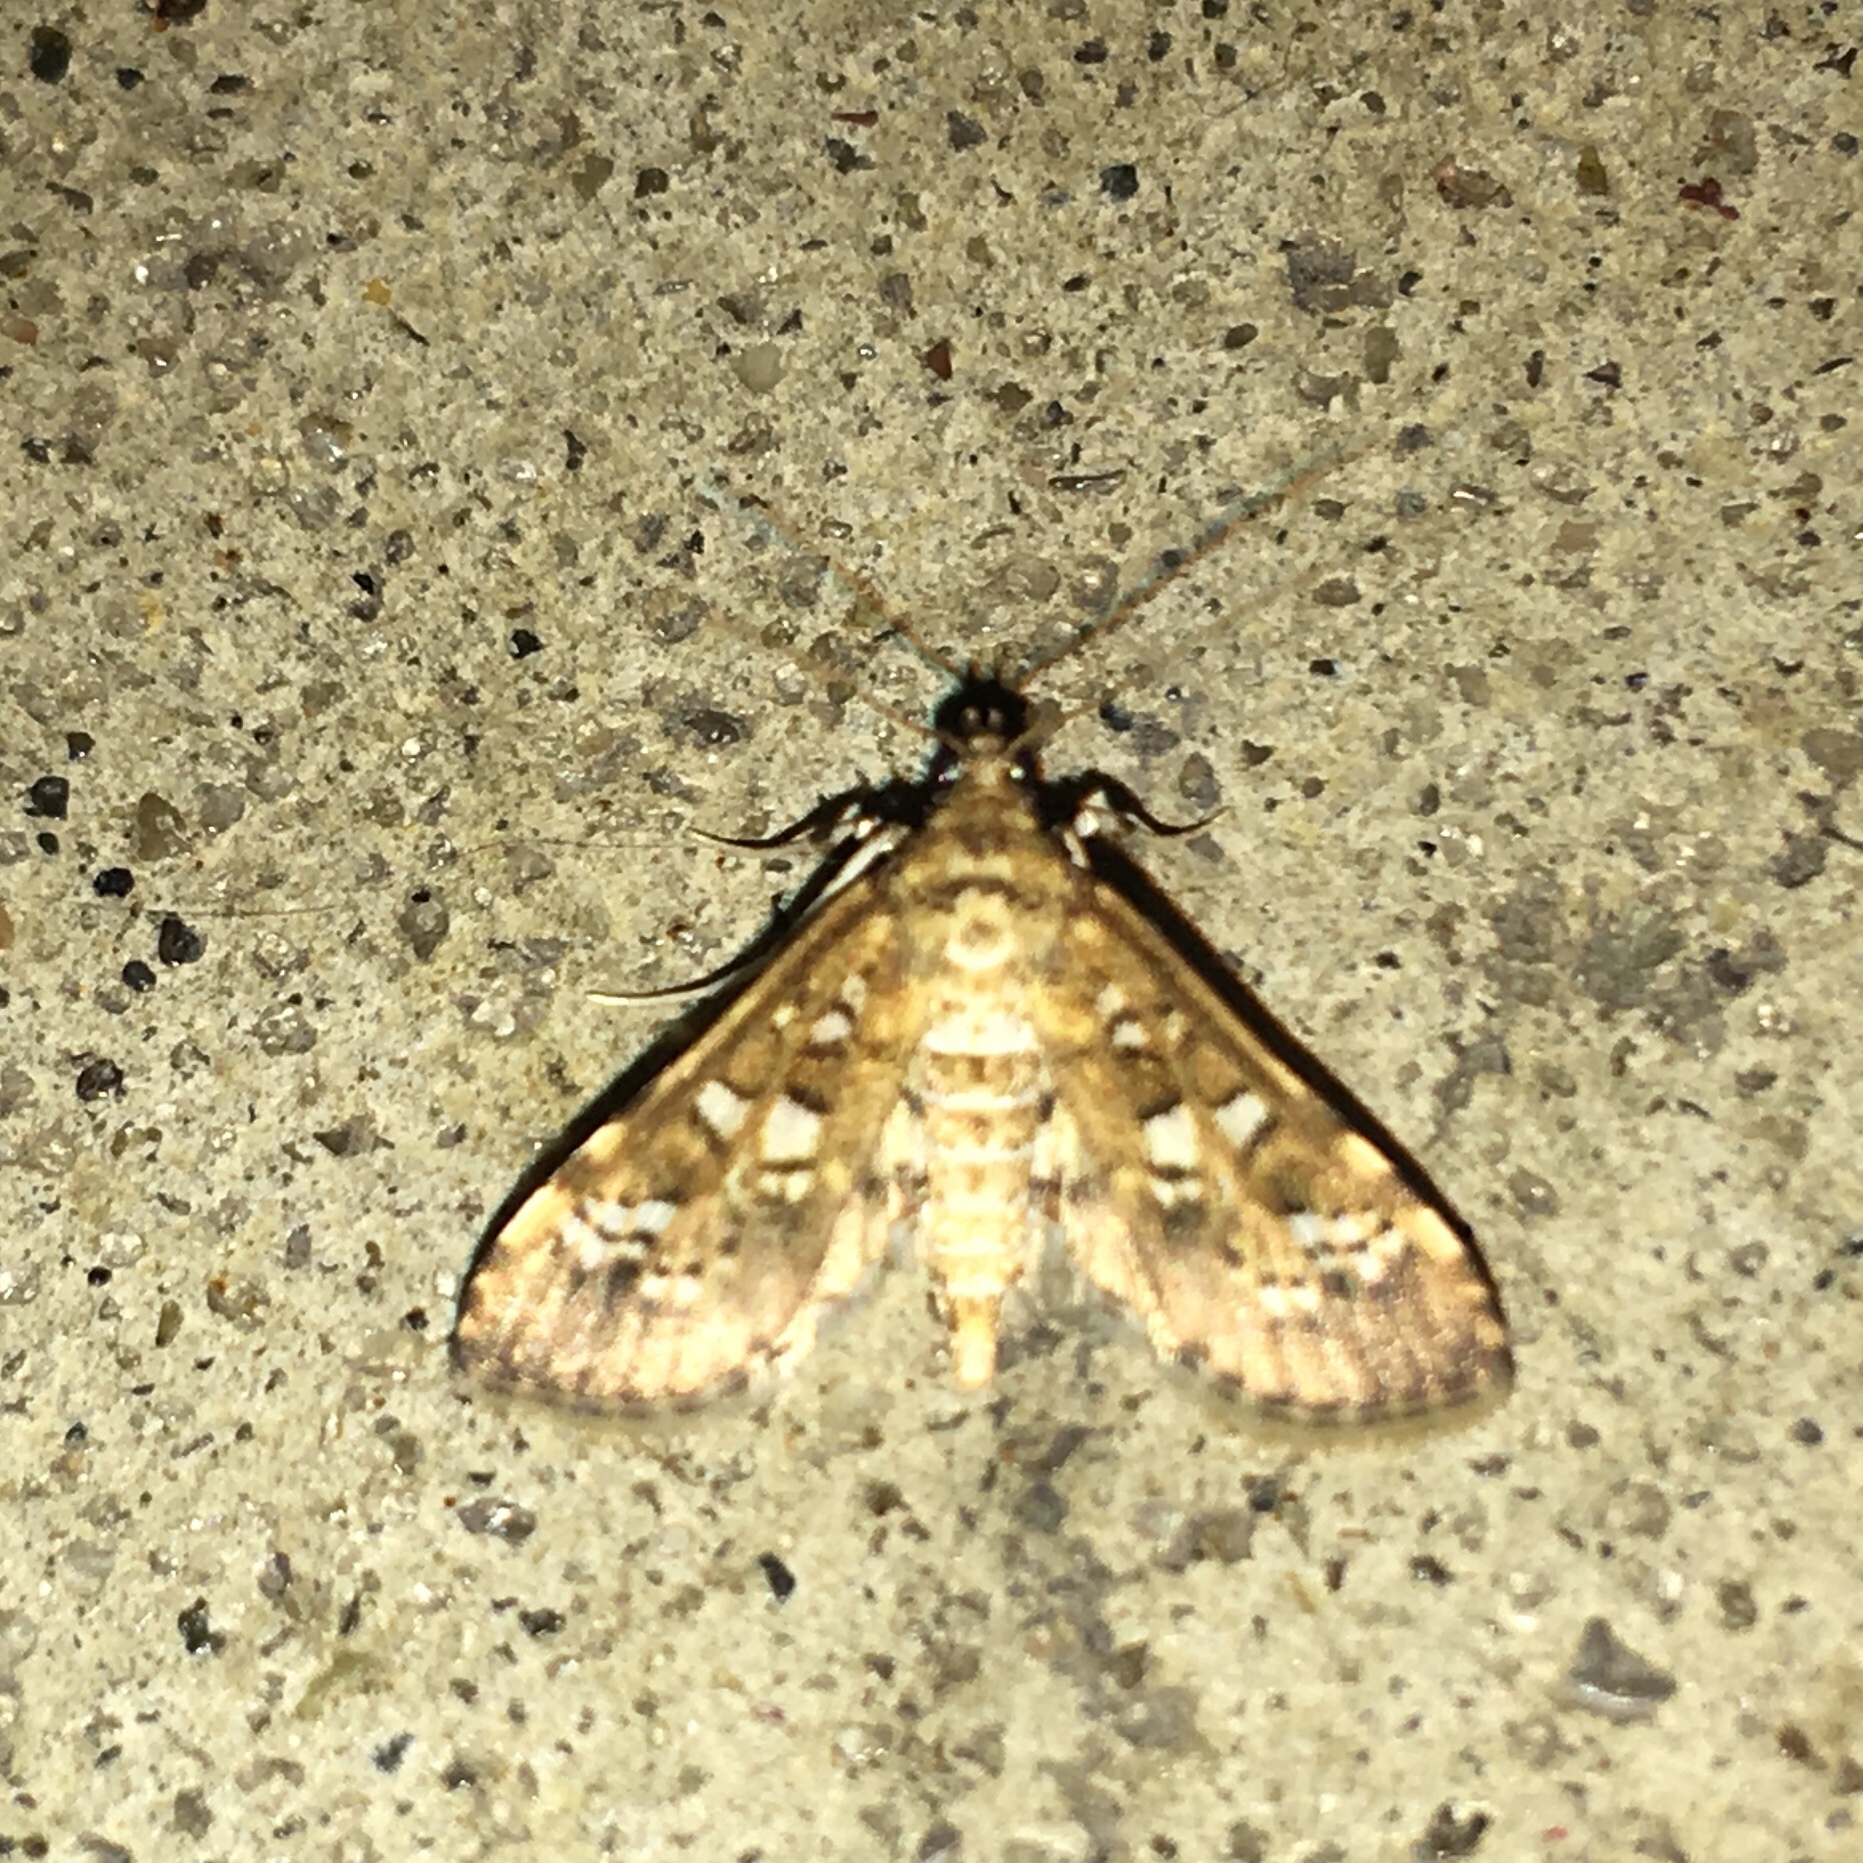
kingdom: Animalia
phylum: Arthropoda
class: Insecta
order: Lepidoptera
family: Crambidae
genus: Samea
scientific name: Samea multiplicalis
